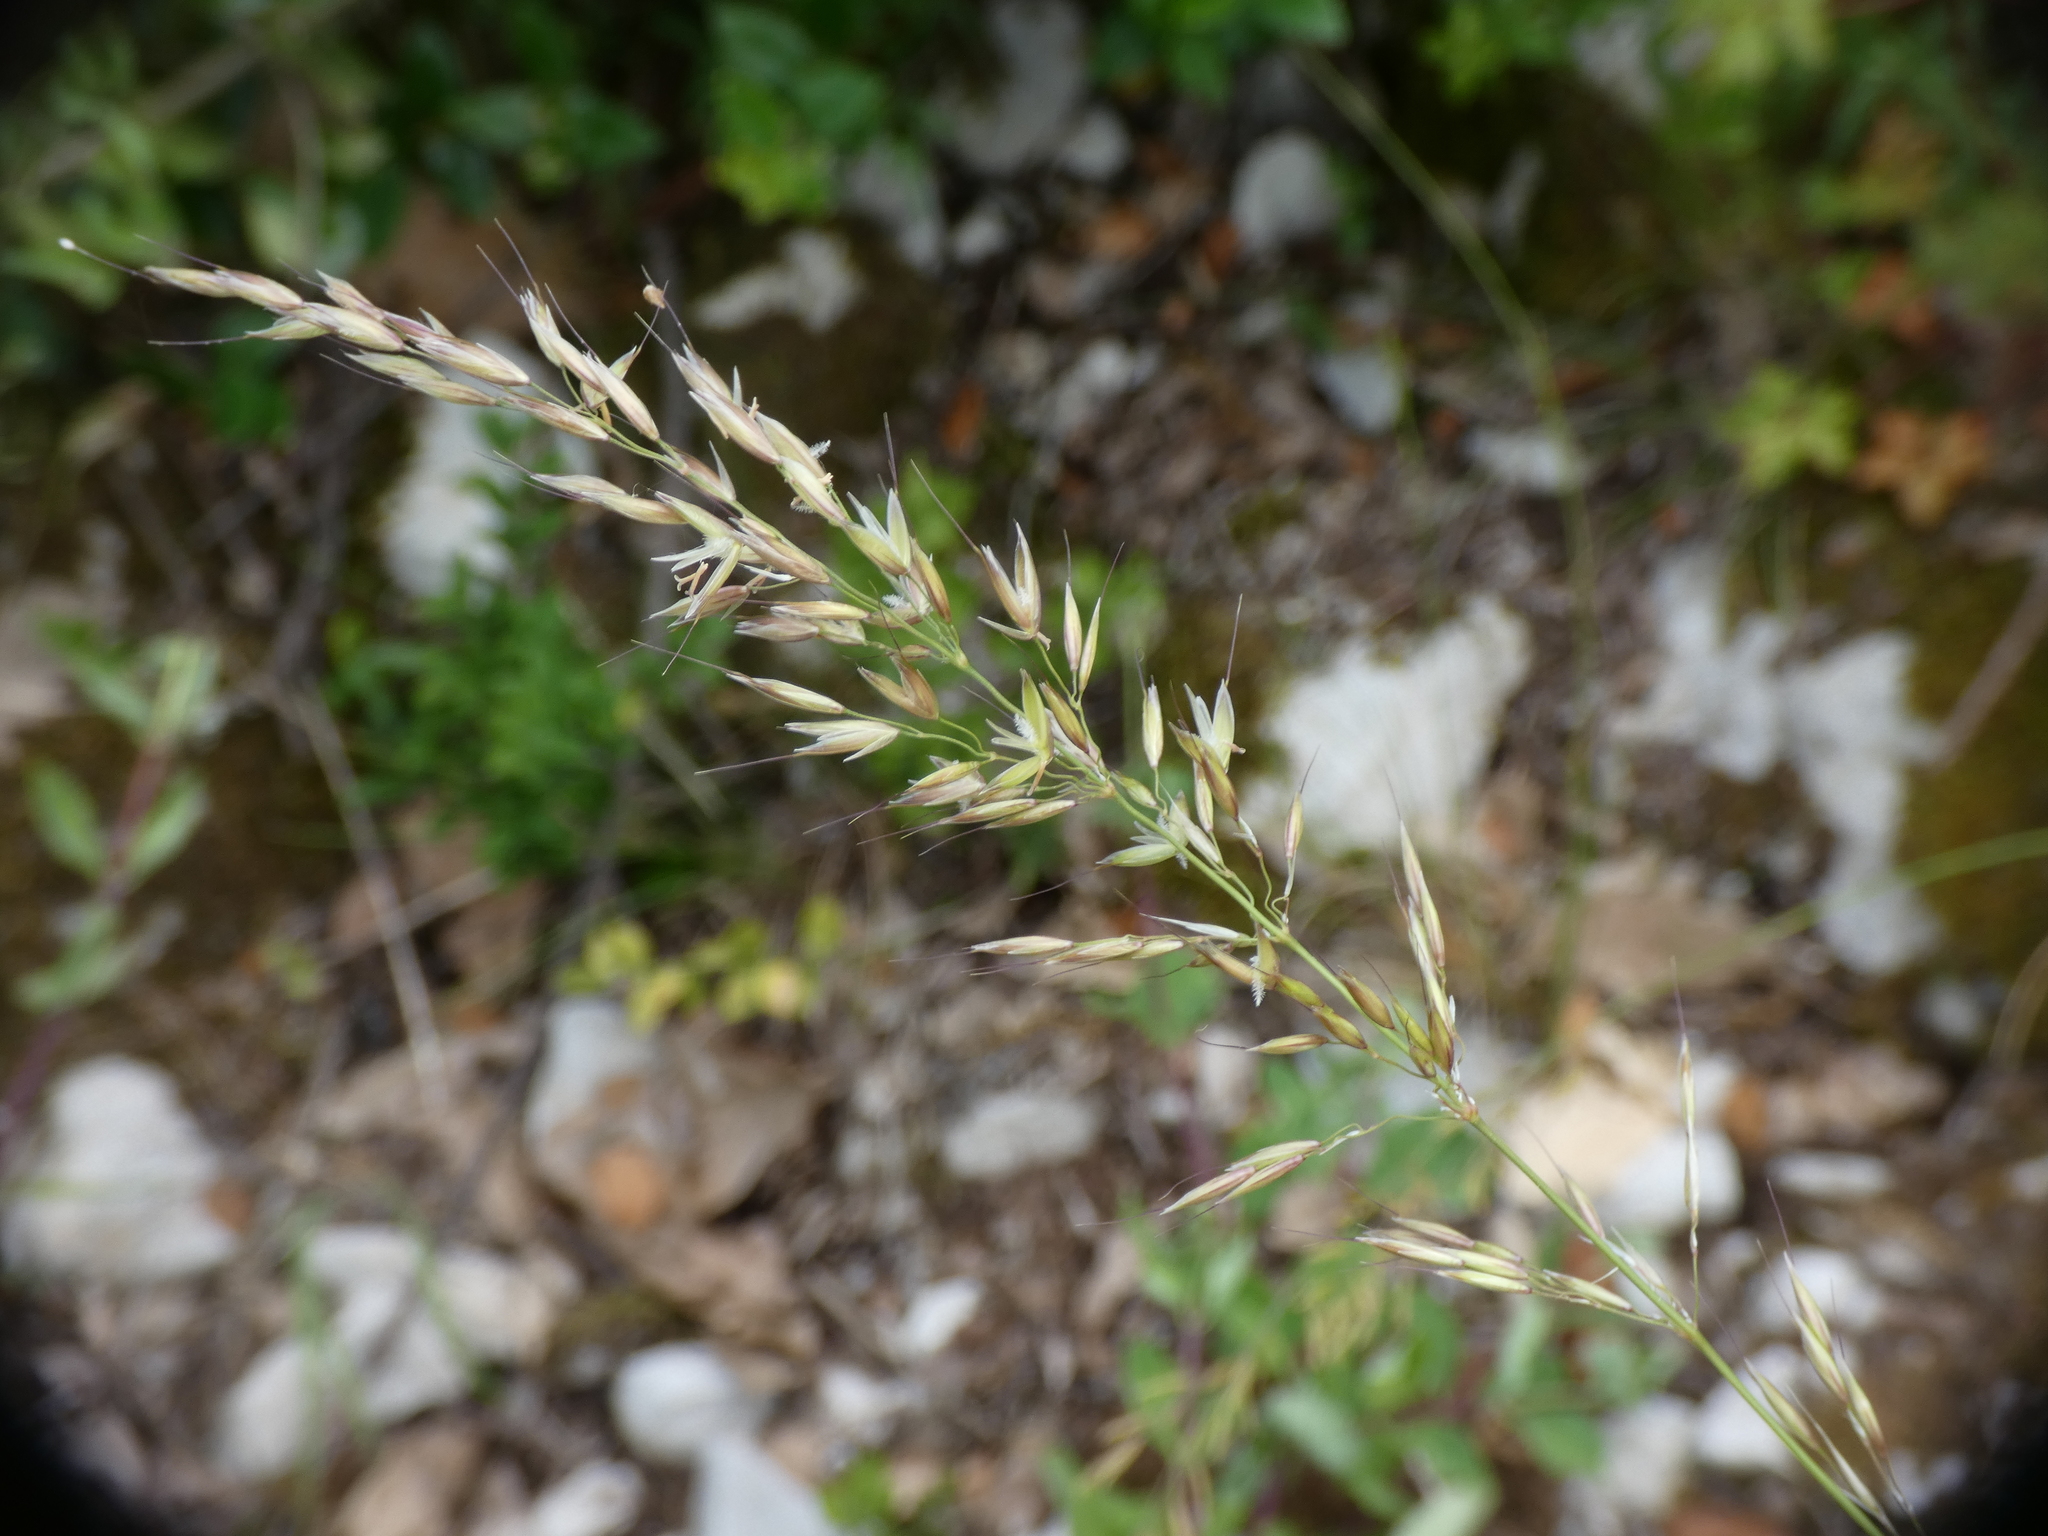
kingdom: Plantae
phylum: Tracheophyta
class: Liliopsida
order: Poales
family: Poaceae
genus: Arrhenatherum
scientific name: Arrhenatherum elatius
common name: Tall oatgrass
